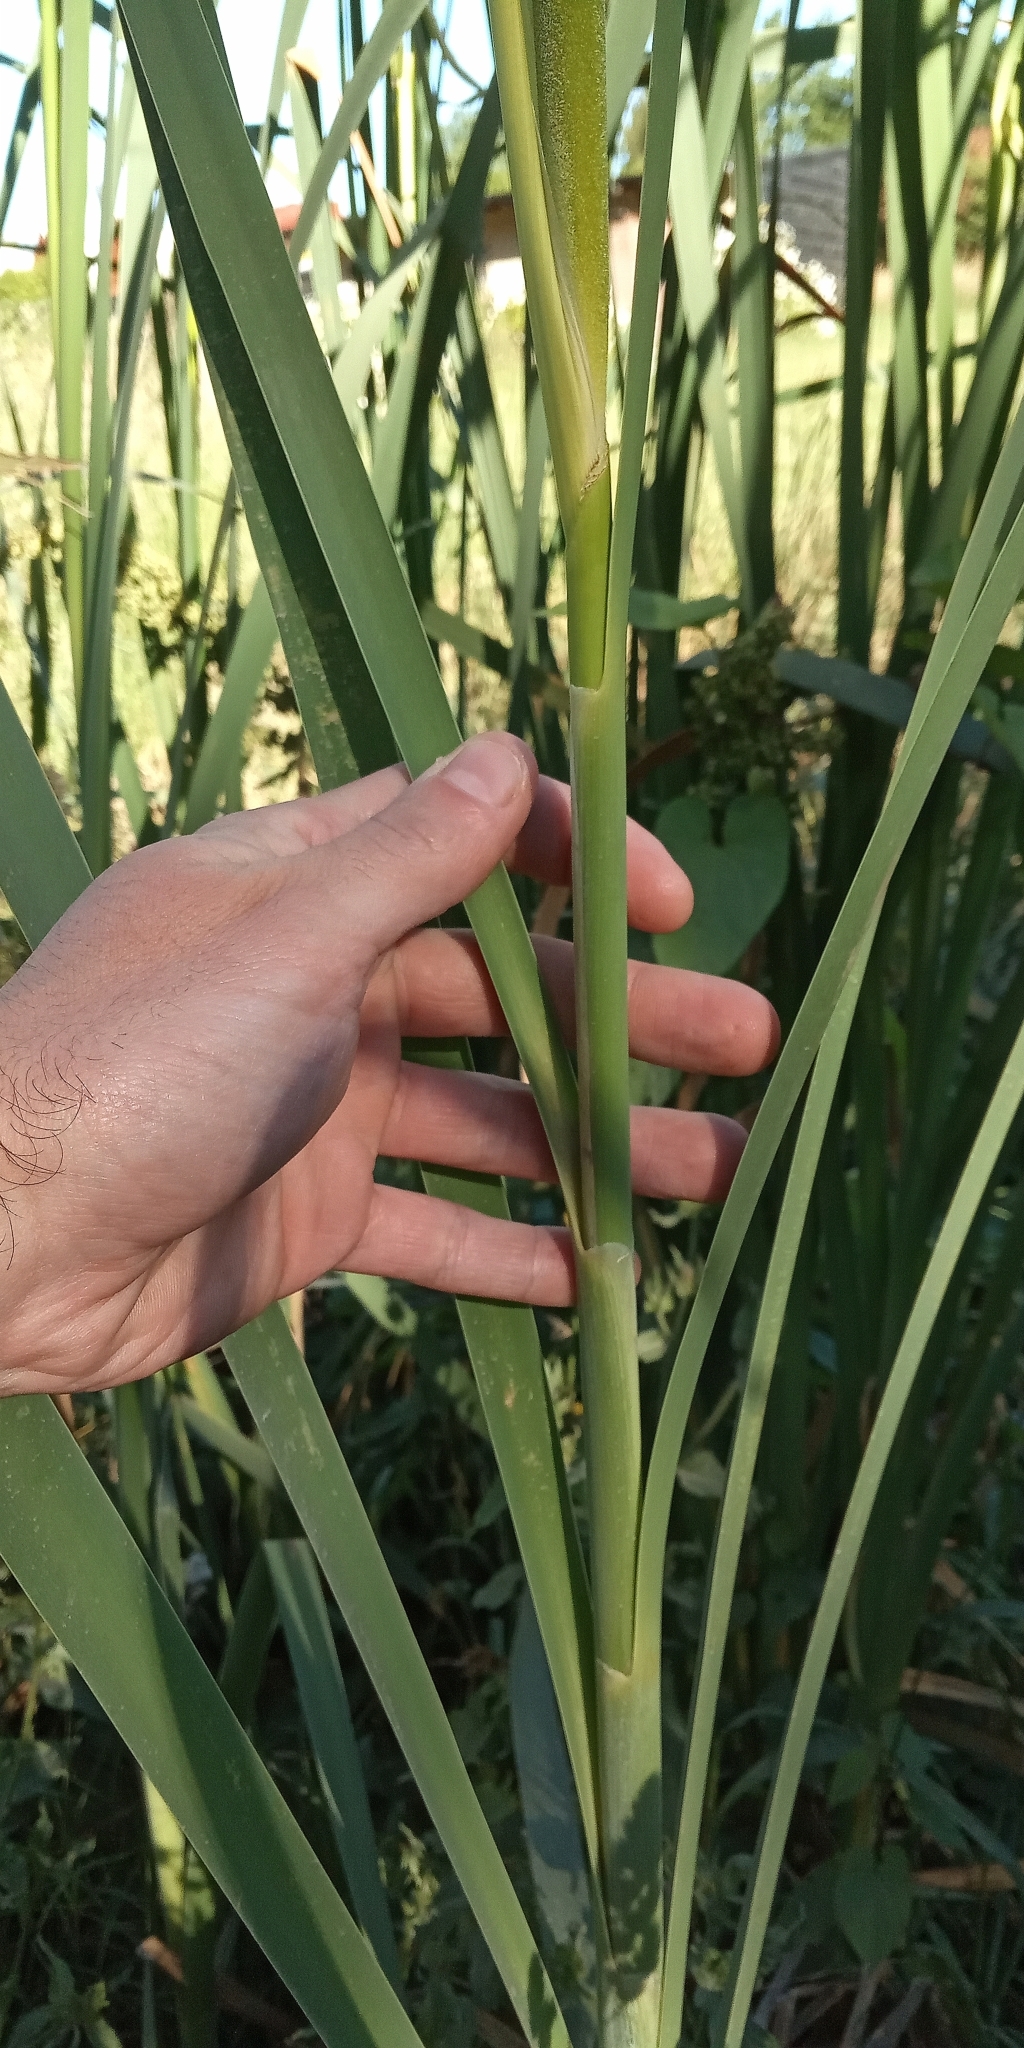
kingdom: Plantae
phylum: Tracheophyta
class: Liliopsida
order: Poales
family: Typhaceae
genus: Typha
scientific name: Typha latifolia
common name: Broadleaf cattail
